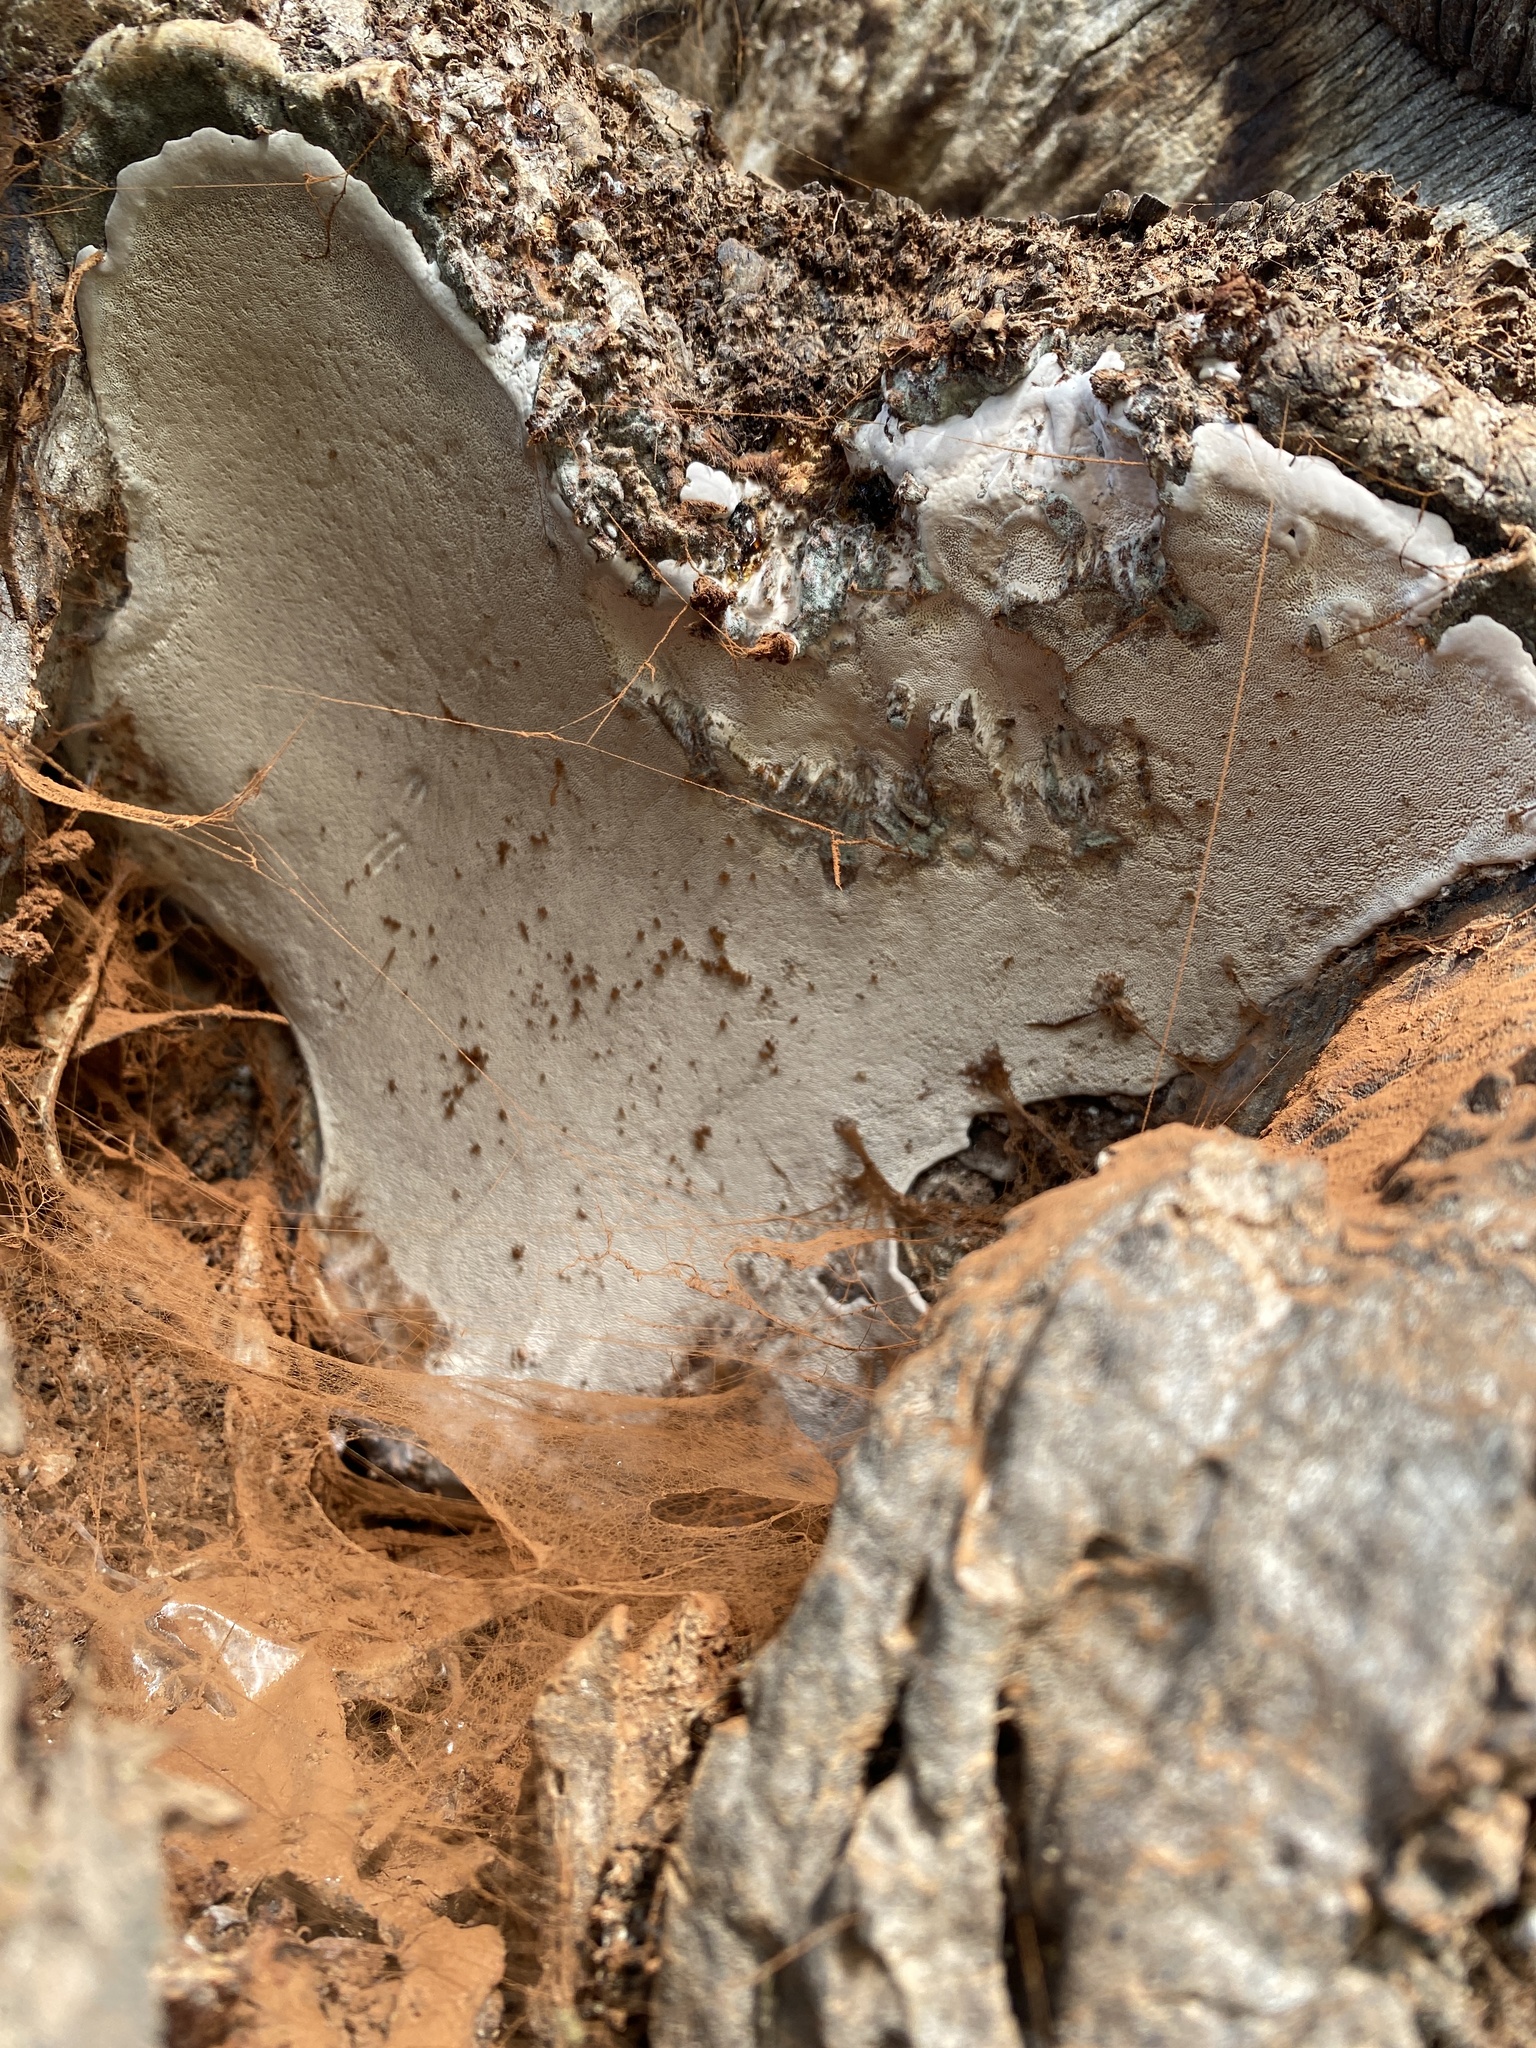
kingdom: Fungi
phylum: Basidiomycota
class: Agaricomycetes
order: Polyporales
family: Polyporaceae
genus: Ganoderma
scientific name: Ganoderma brownii
